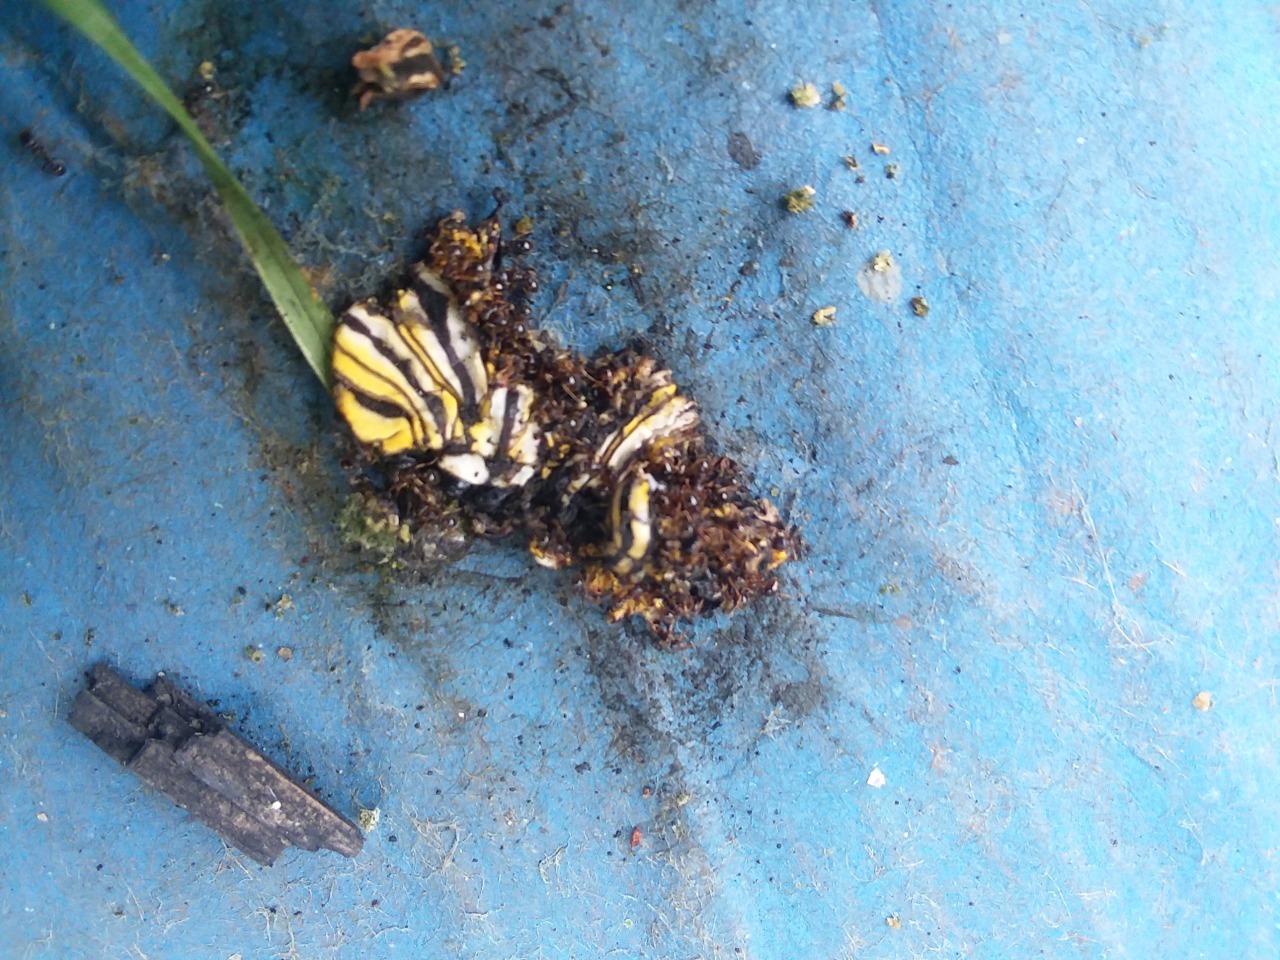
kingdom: Animalia
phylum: Arthropoda
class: Insecta
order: Lepidoptera
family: Nymphalidae
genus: Danaus
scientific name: Danaus plexippus
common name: Monarch
